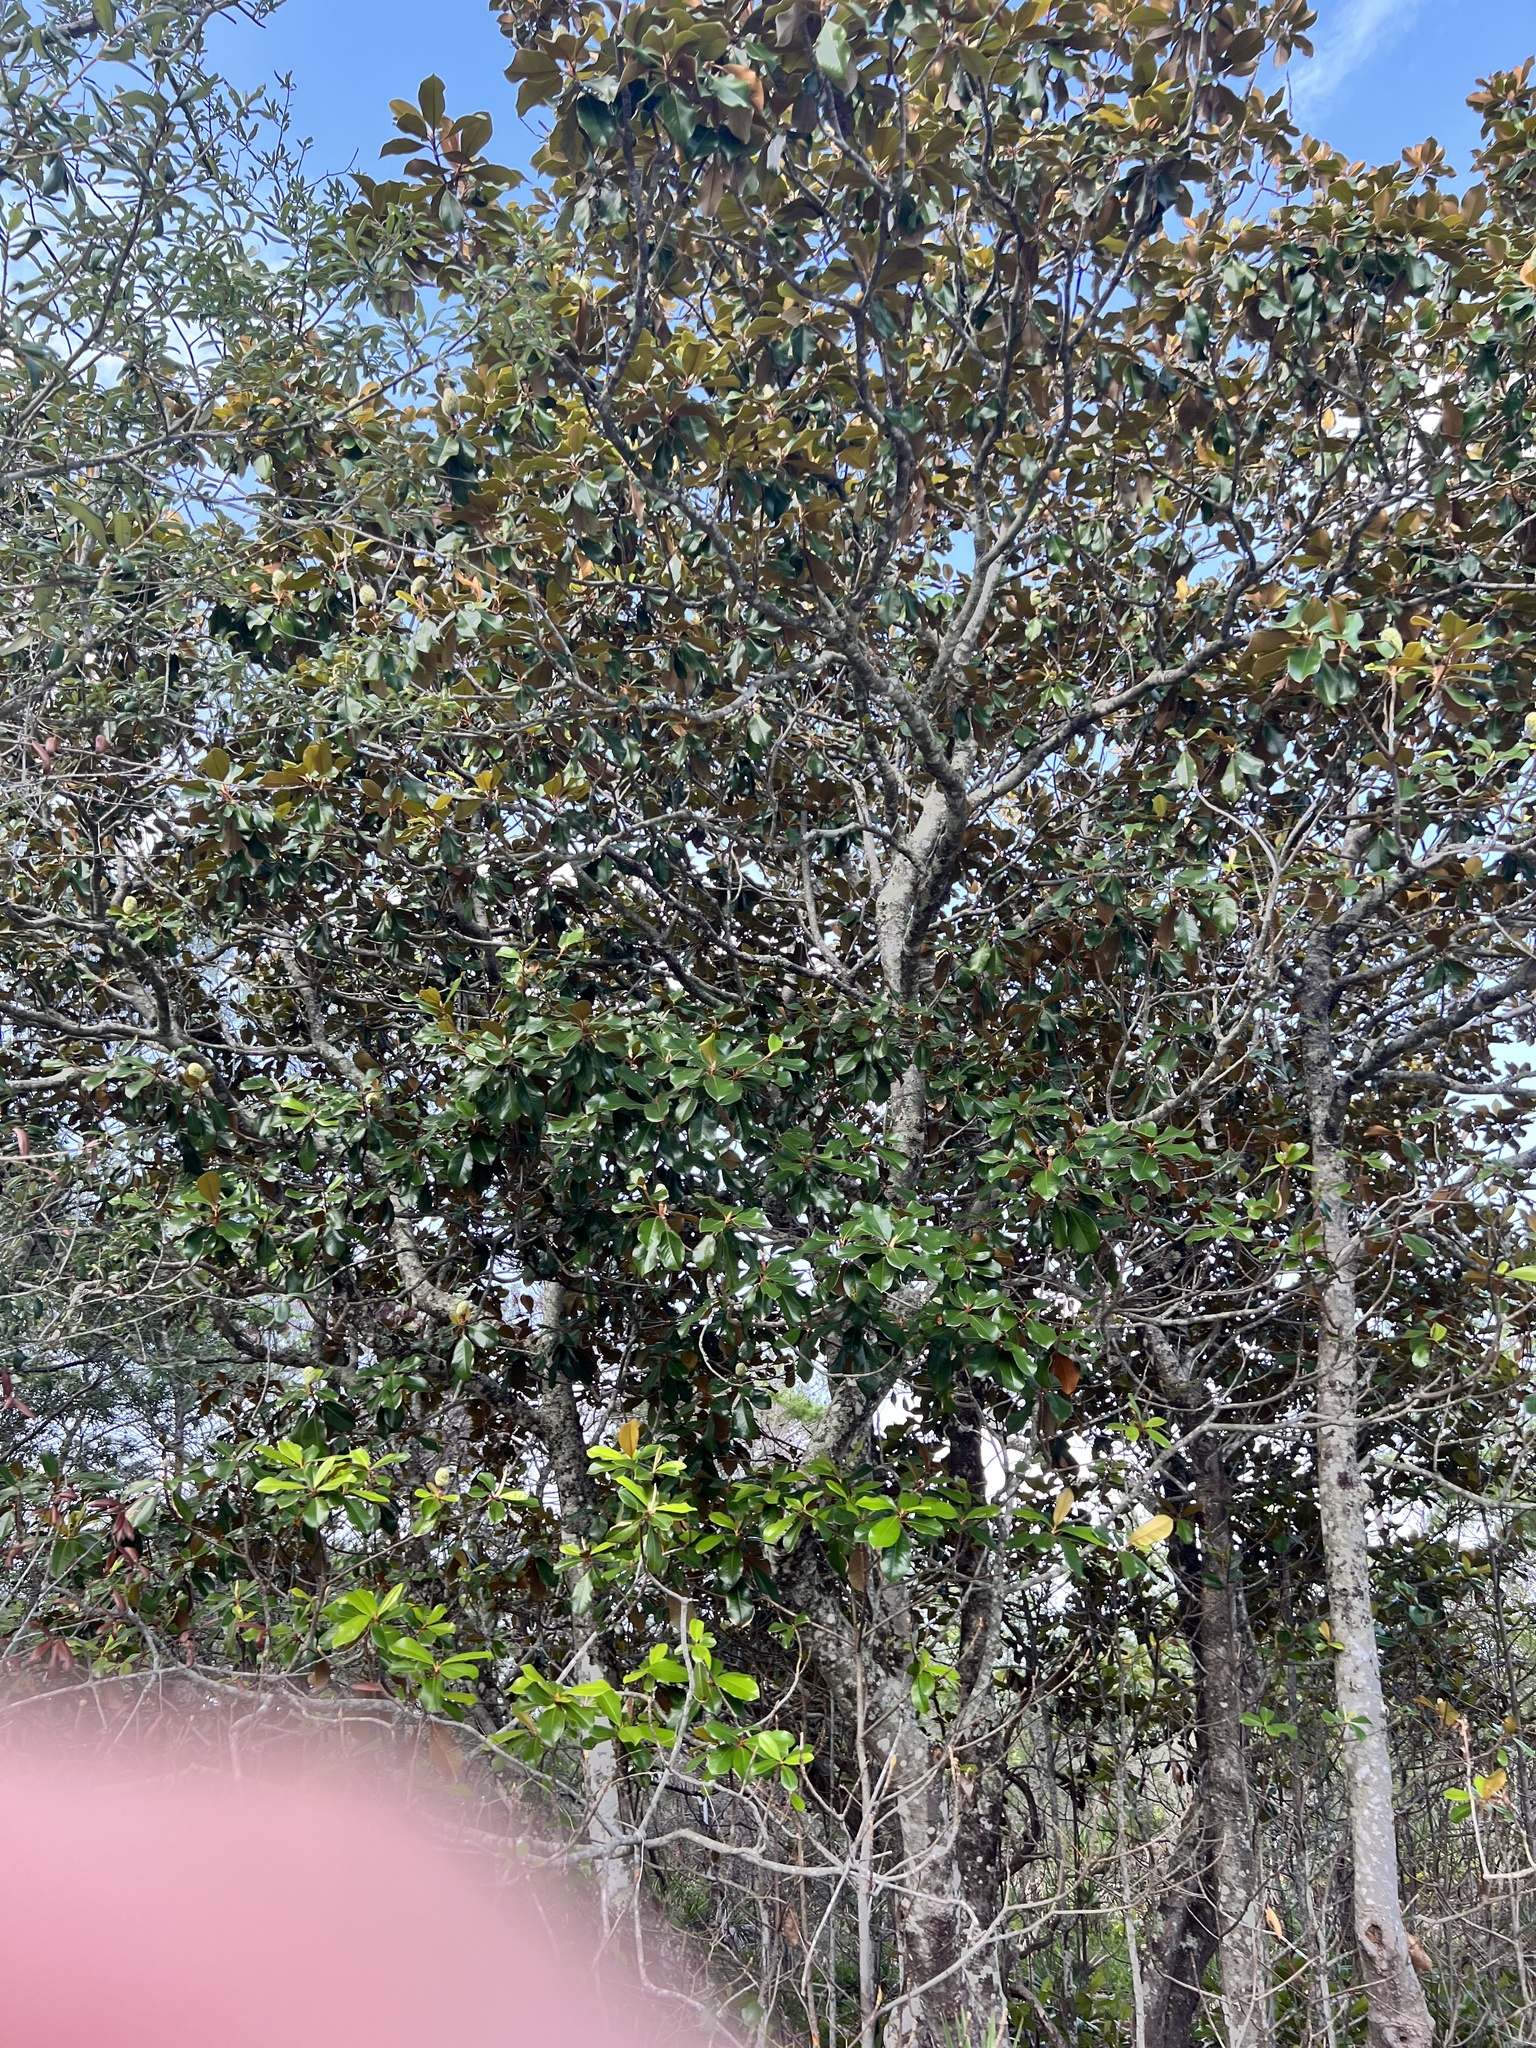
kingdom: Plantae
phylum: Tracheophyta
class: Magnoliopsida
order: Magnoliales
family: Magnoliaceae
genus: Magnolia
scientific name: Magnolia grandiflora
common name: Southern magnolia
